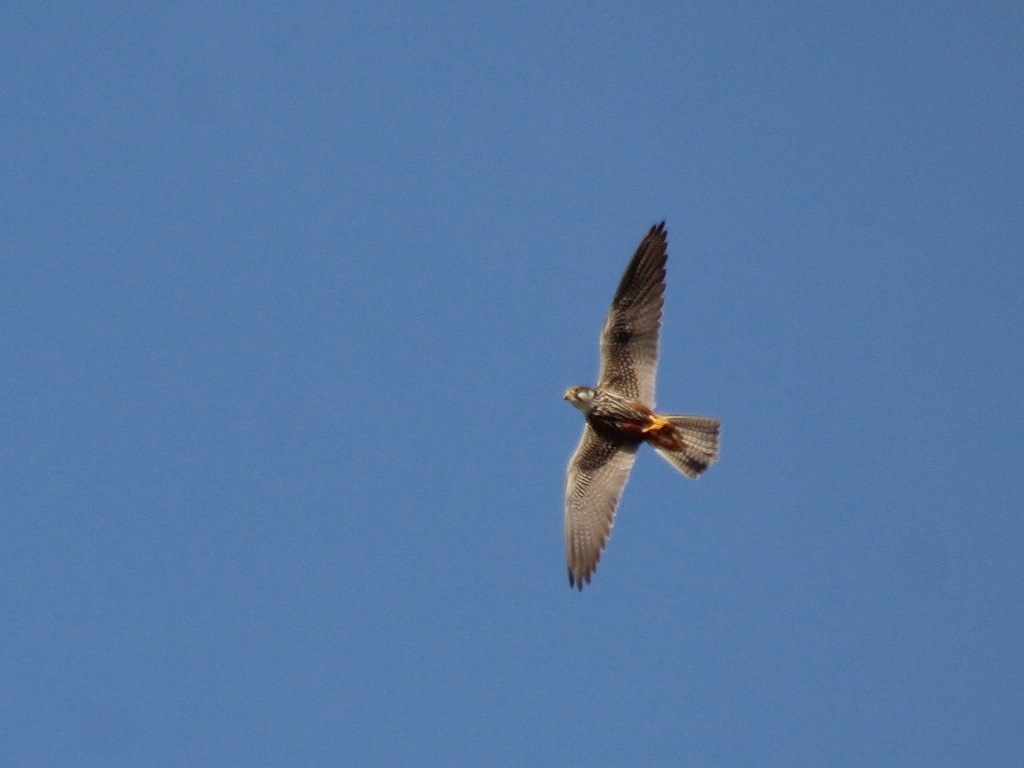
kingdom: Animalia
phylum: Chordata
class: Aves
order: Falconiformes
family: Falconidae
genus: Falco
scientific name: Falco subbuteo
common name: Eurasian hobby
